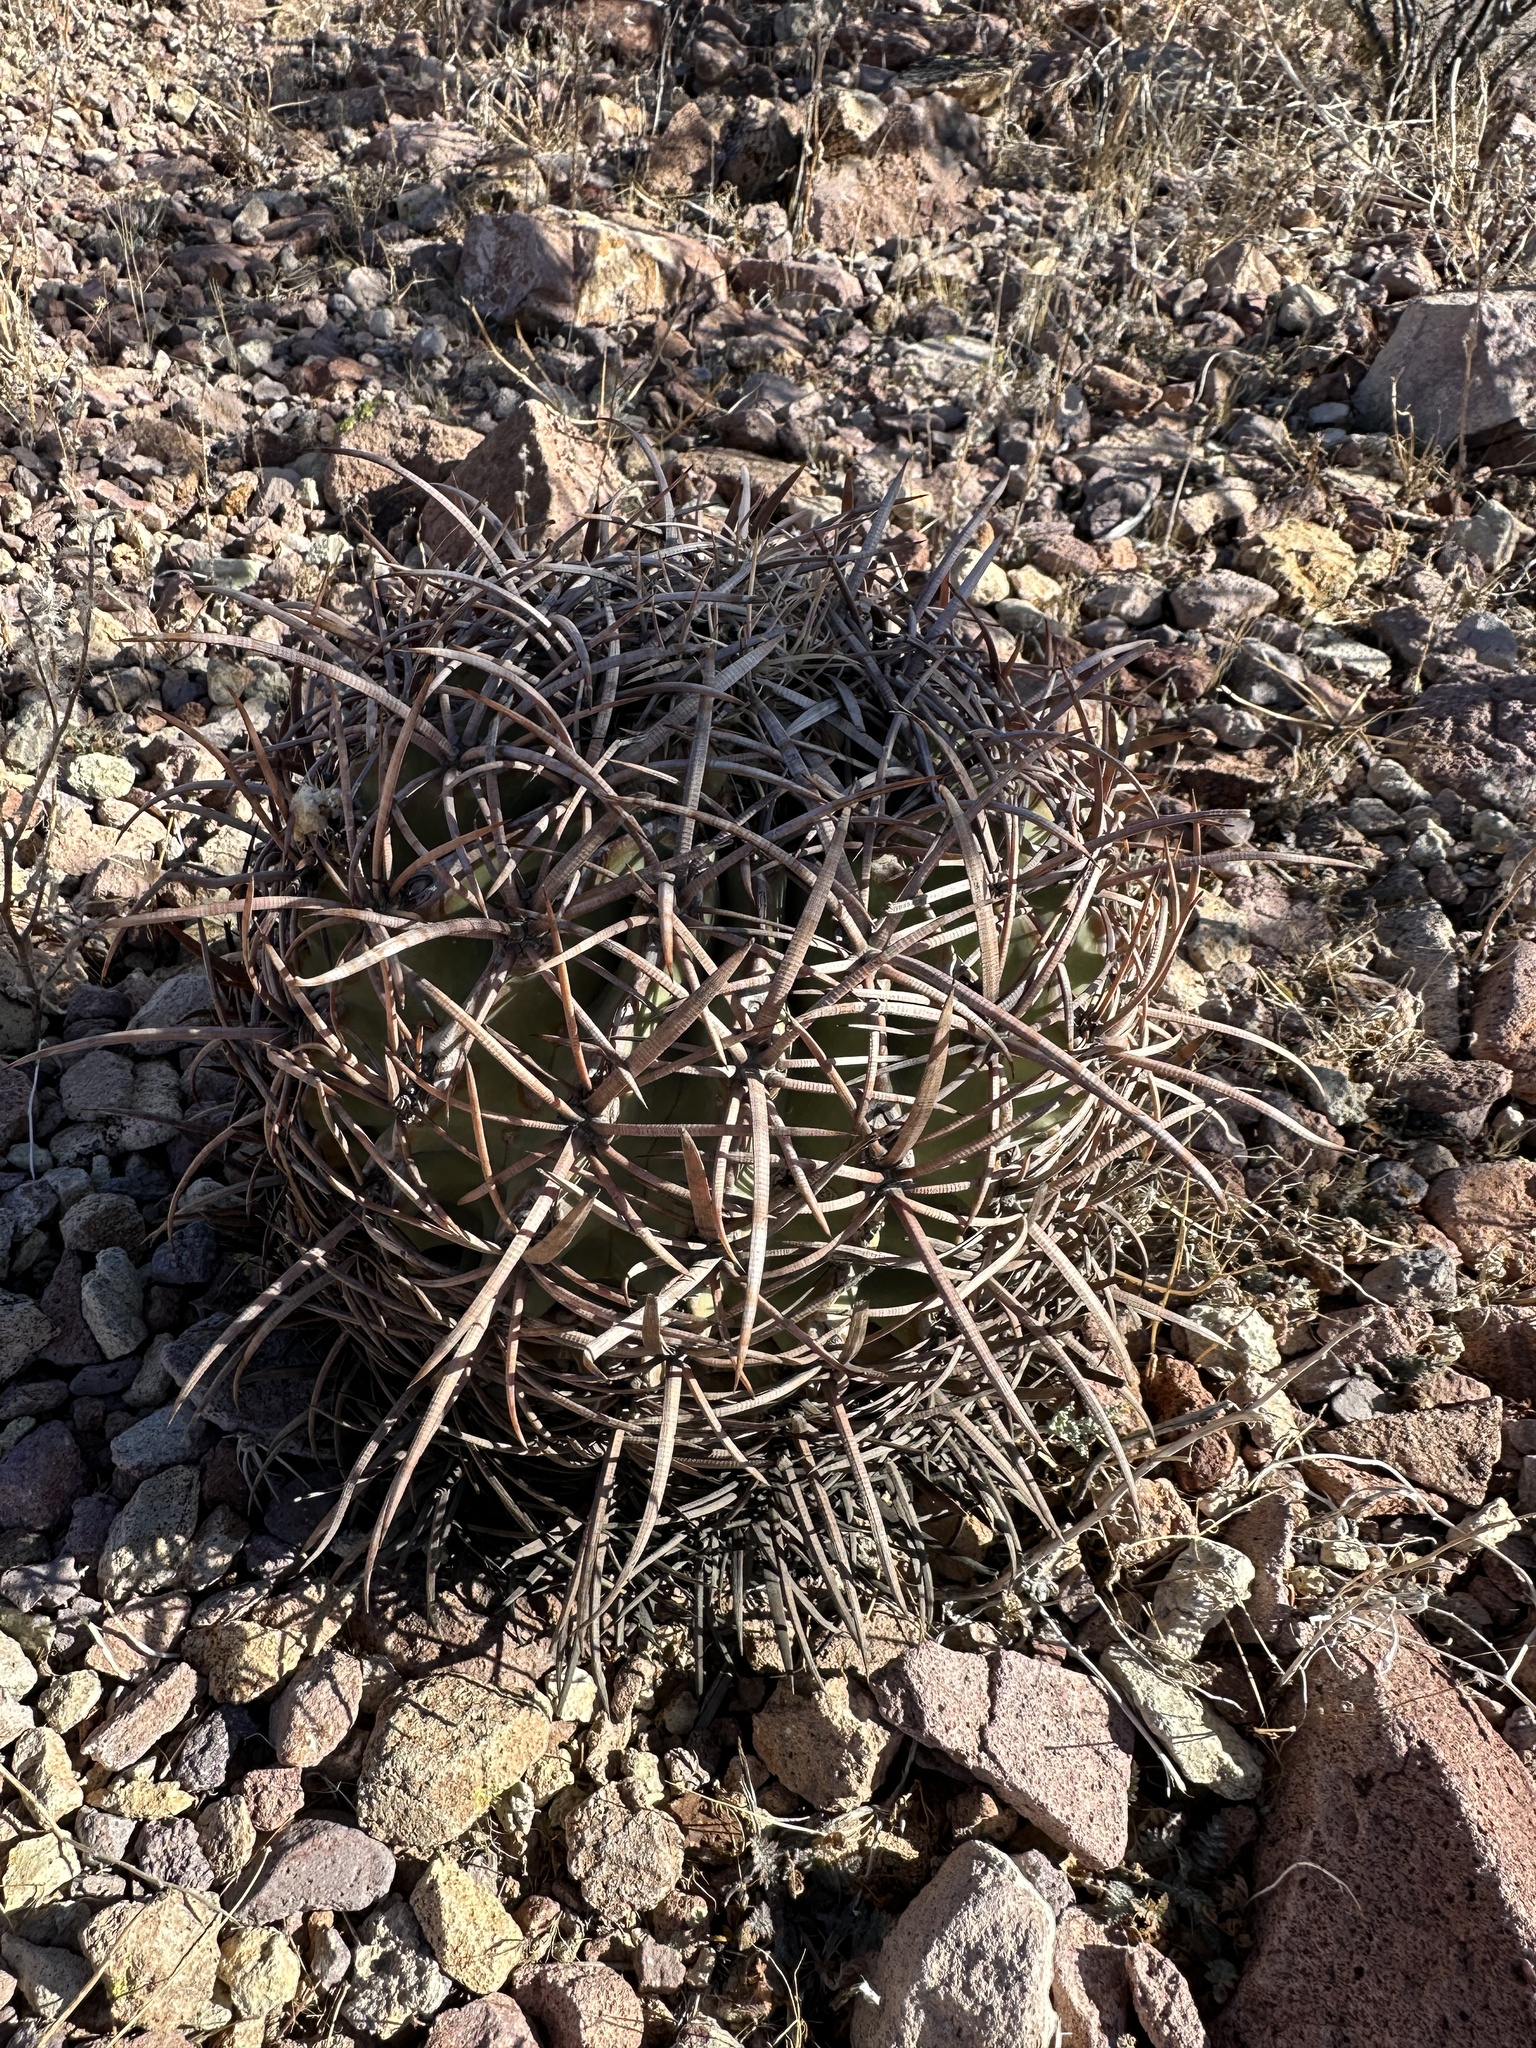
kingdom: Plantae
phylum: Tracheophyta
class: Magnoliopsida
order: Caryophyllales
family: Cactaceae
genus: Echinocactus
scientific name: Echinocactus polycephalus
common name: Cottontop cactus
